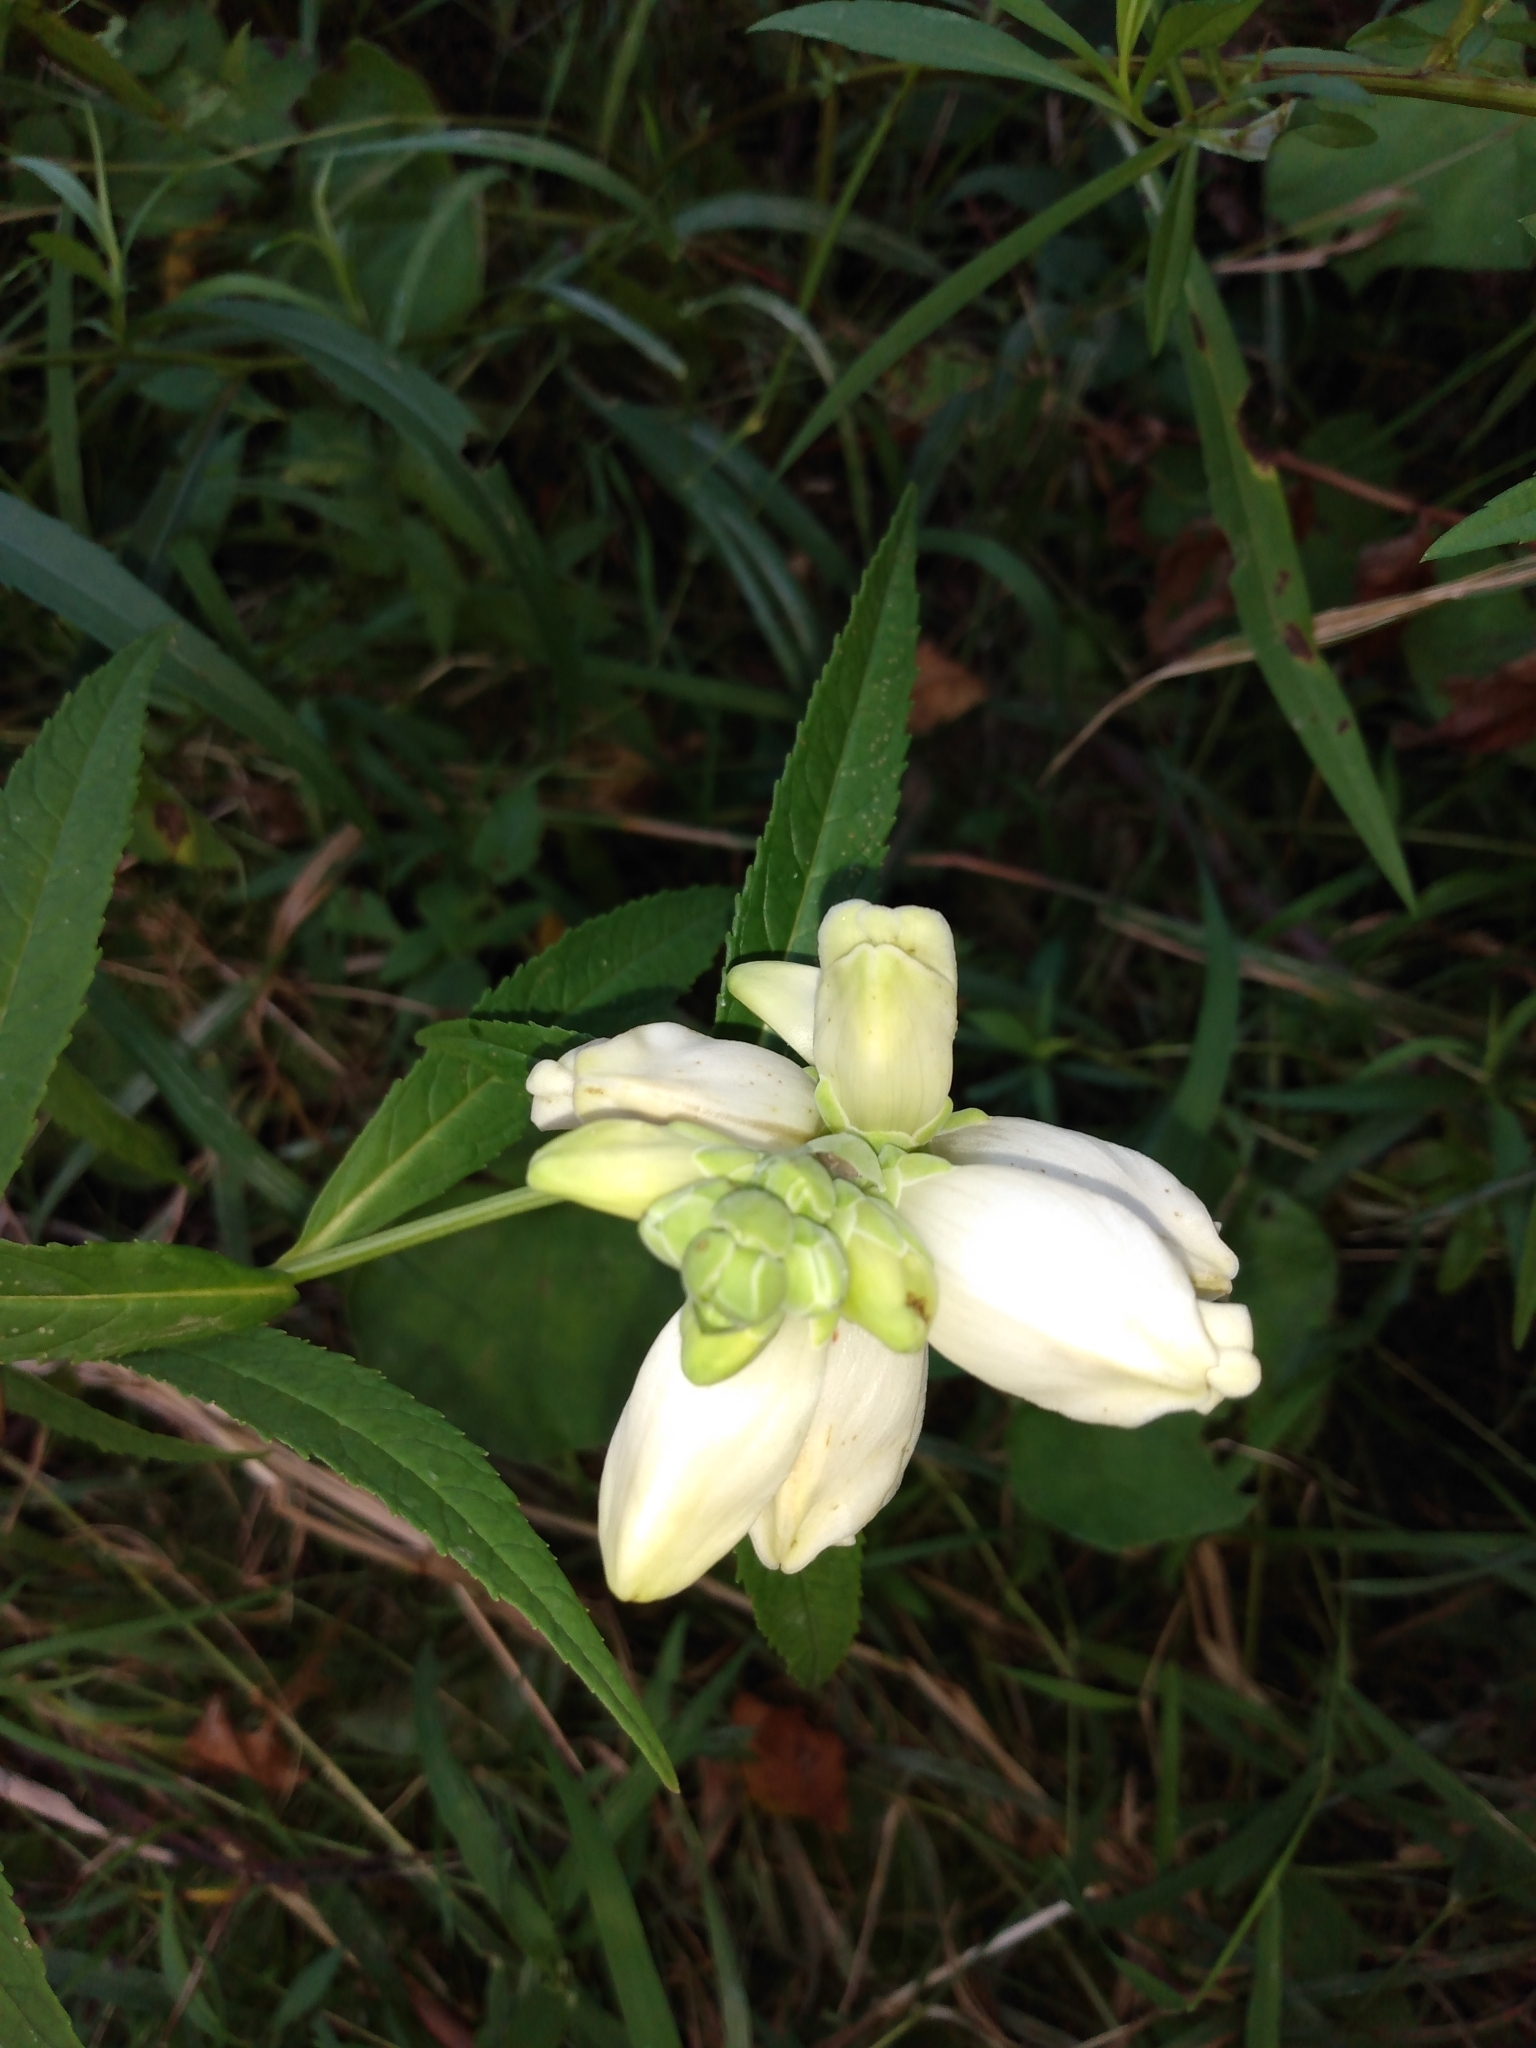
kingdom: Plantae
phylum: Tracheophyta
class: Magnoliopsida
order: Lamiales
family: Plantaginaceae
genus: Chelone
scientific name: Chelone glabra
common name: Snakehead
